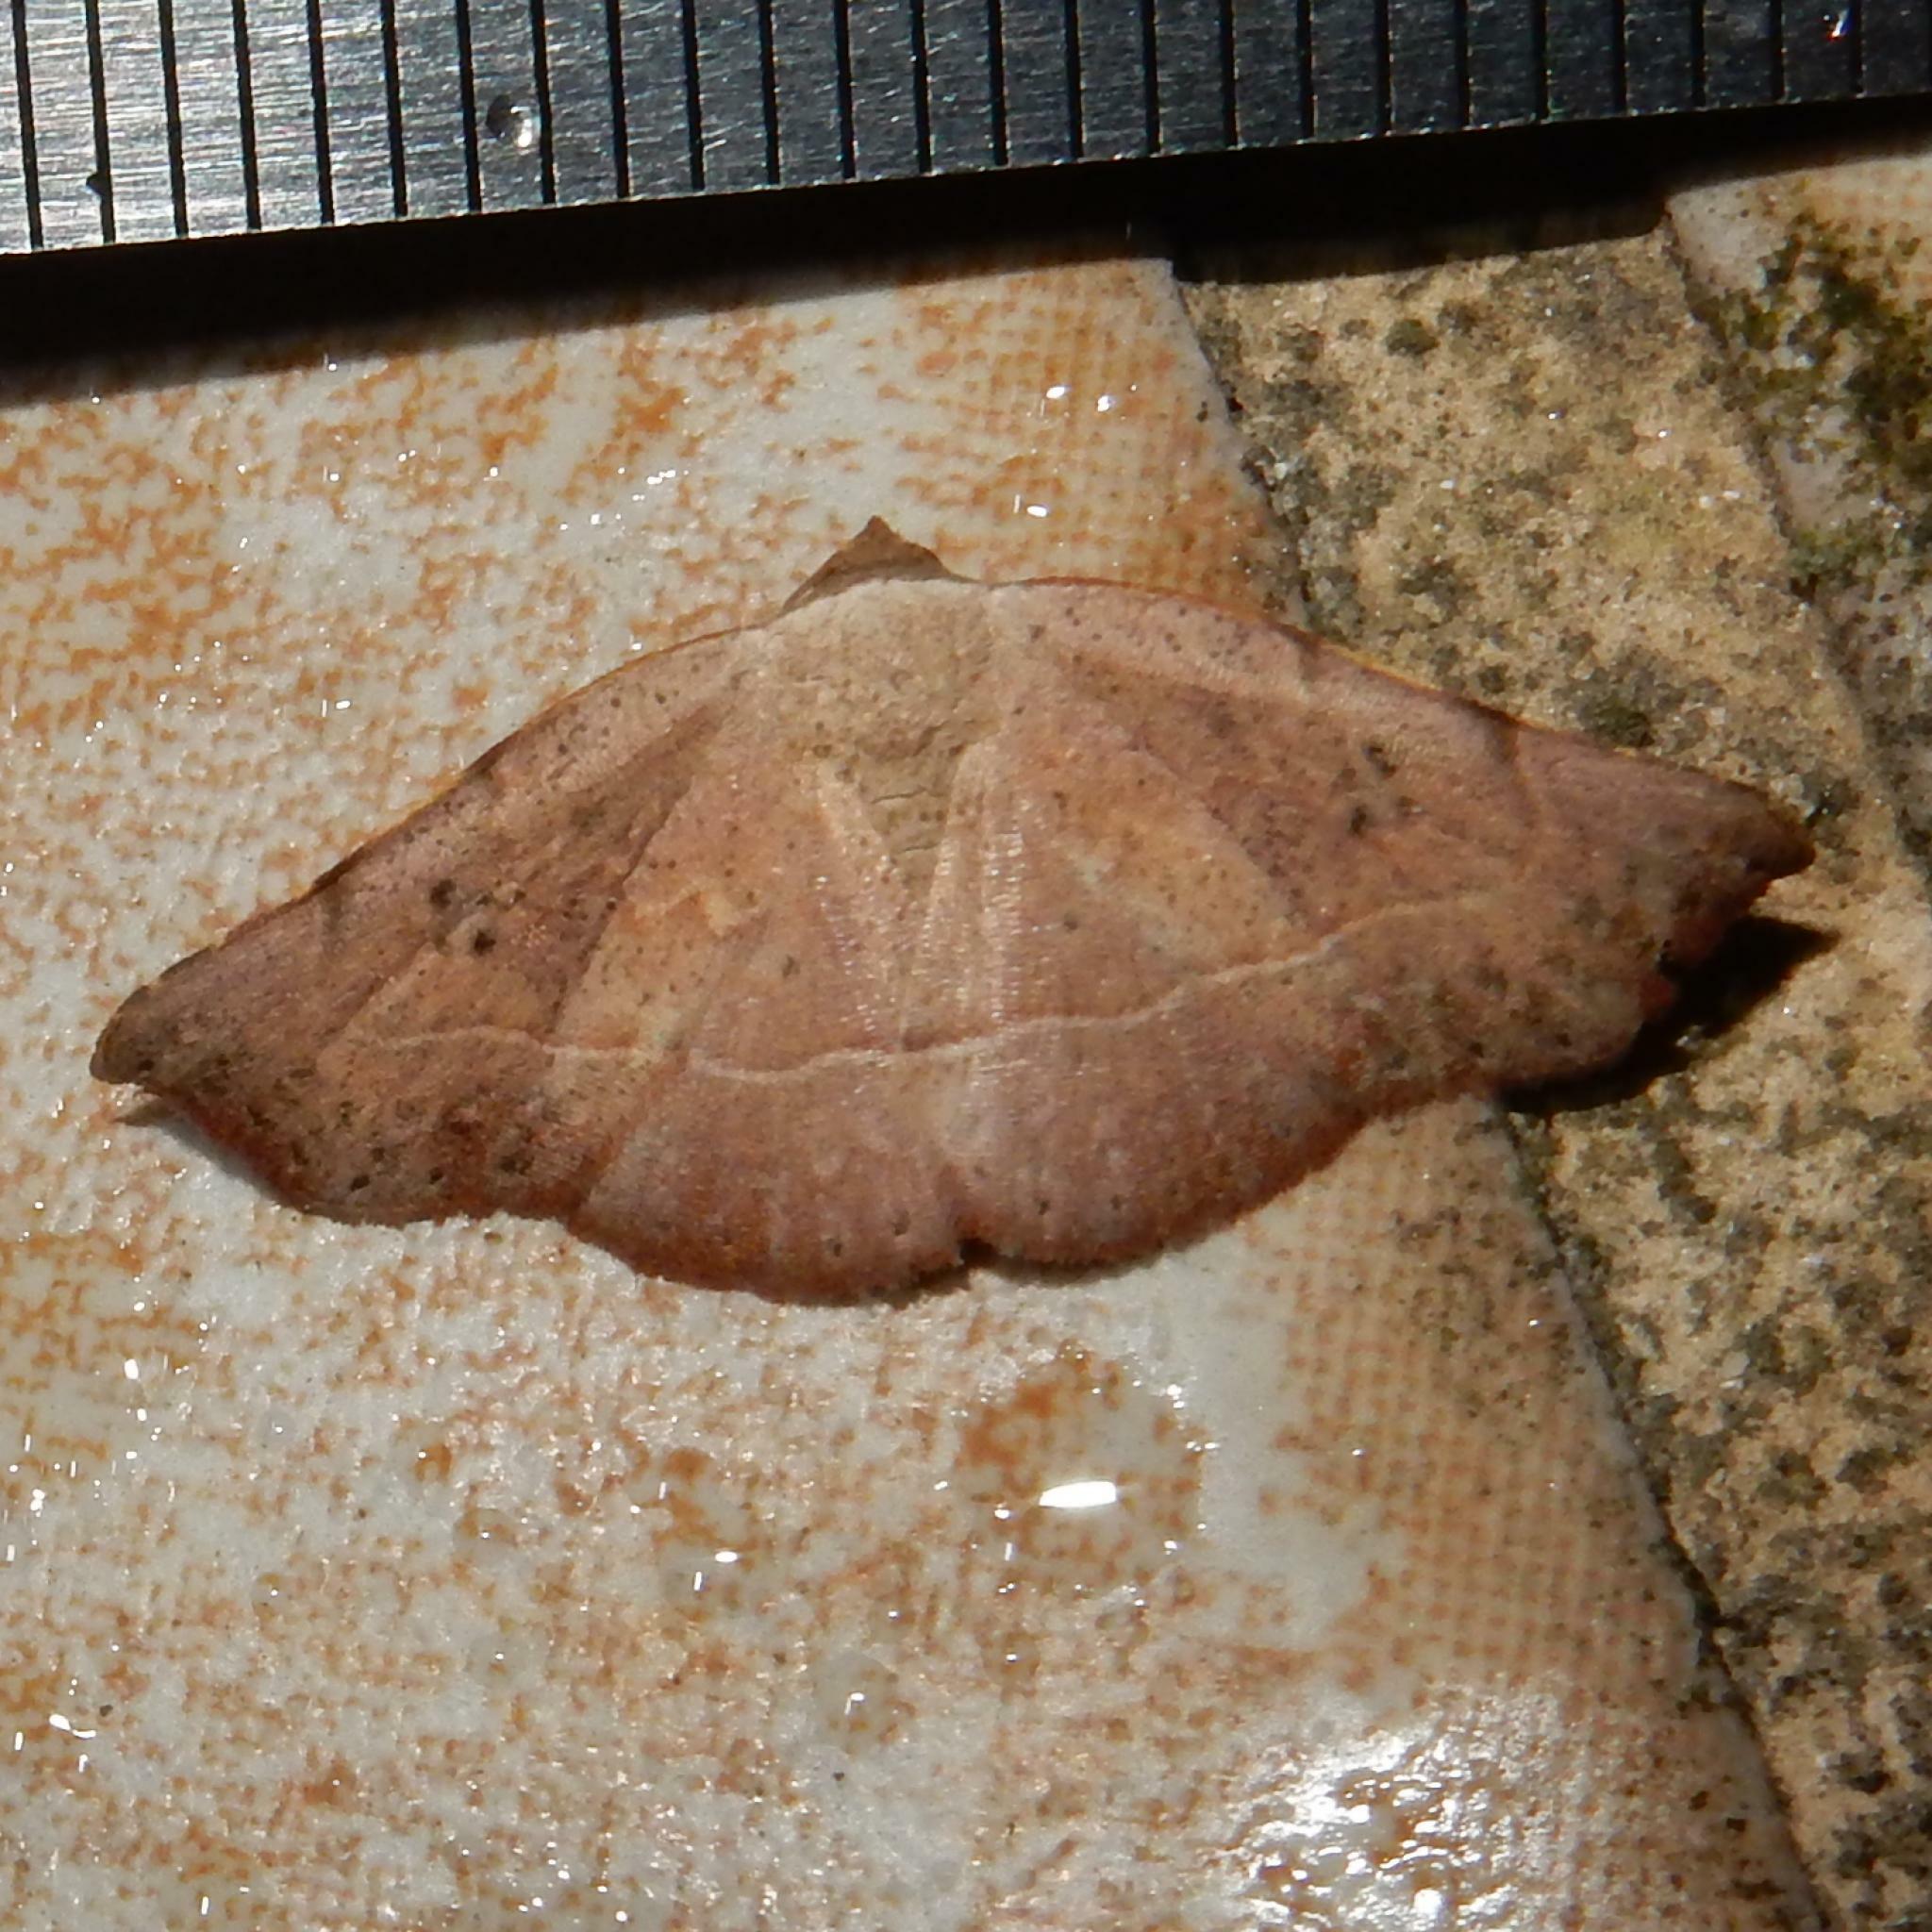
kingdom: Animalia
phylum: Arthropoda
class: Insecta
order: Lepidoptera
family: Noctuidae
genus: Cautatha
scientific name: Cautatha drepanodes
